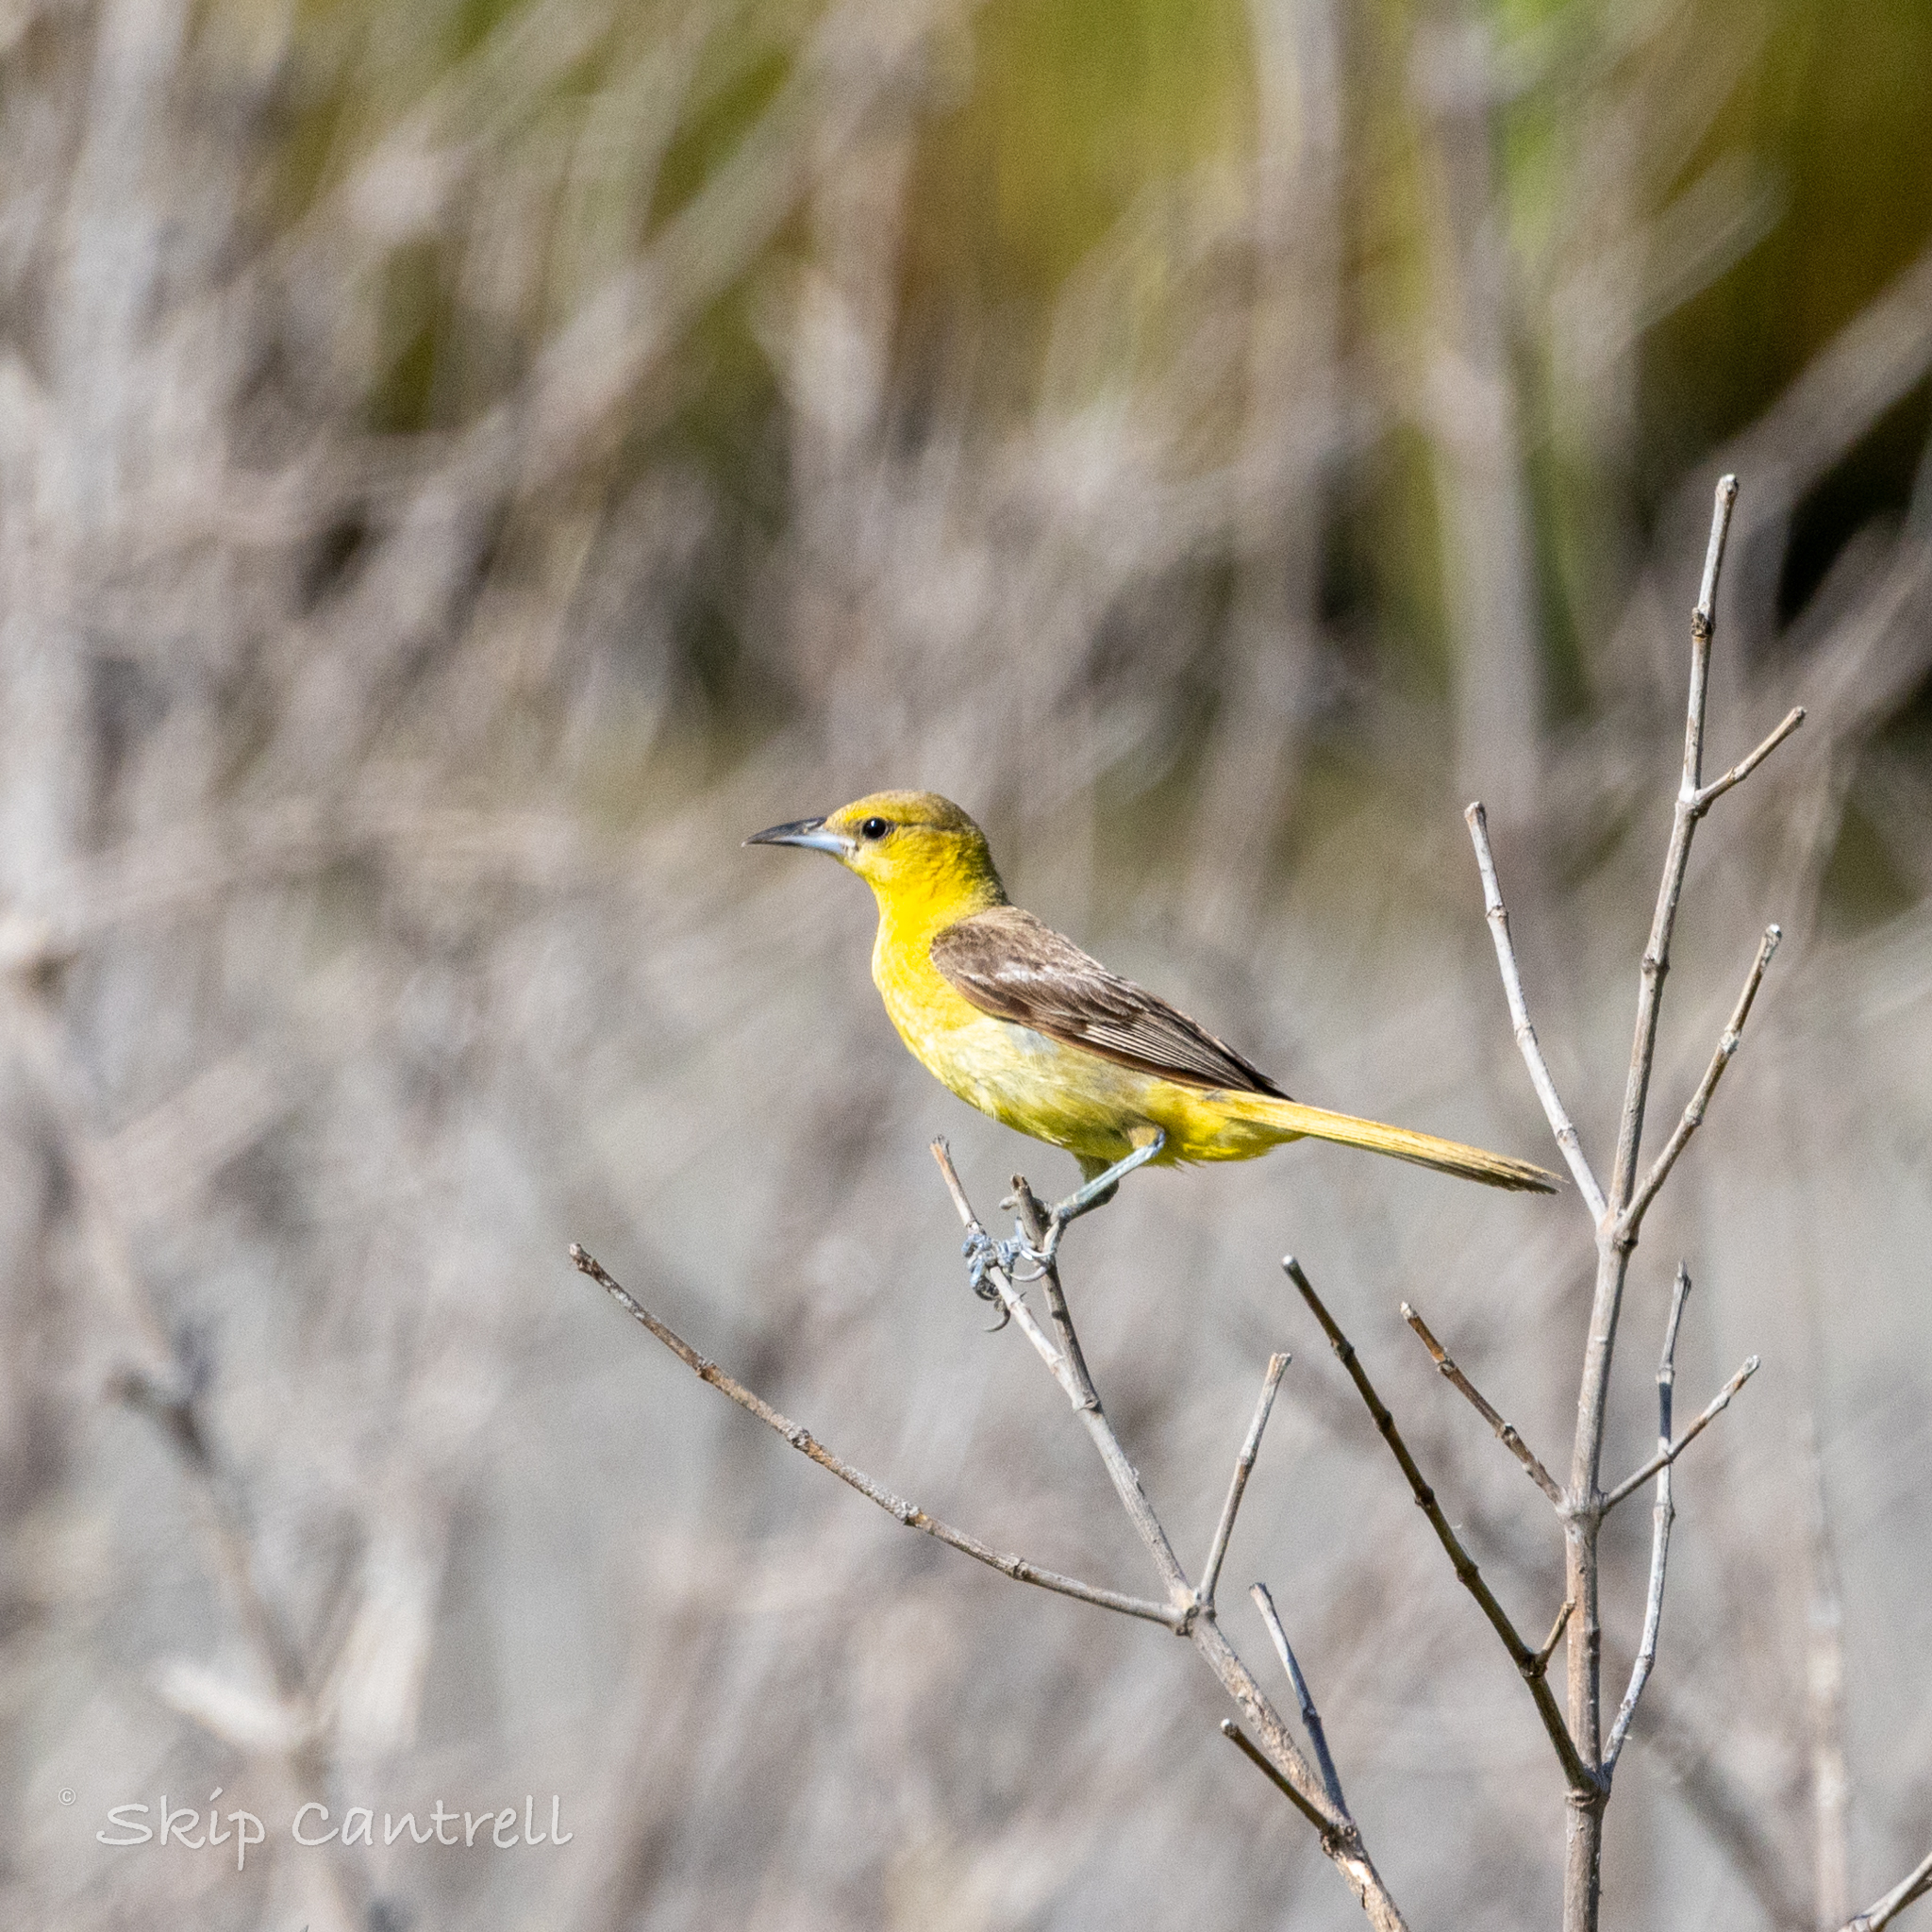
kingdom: Animalia
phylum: Chordata
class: Aves
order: Passeriformes
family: Icteridae
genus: Icterus
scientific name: Icterus cucullatus
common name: Hooded oriole
